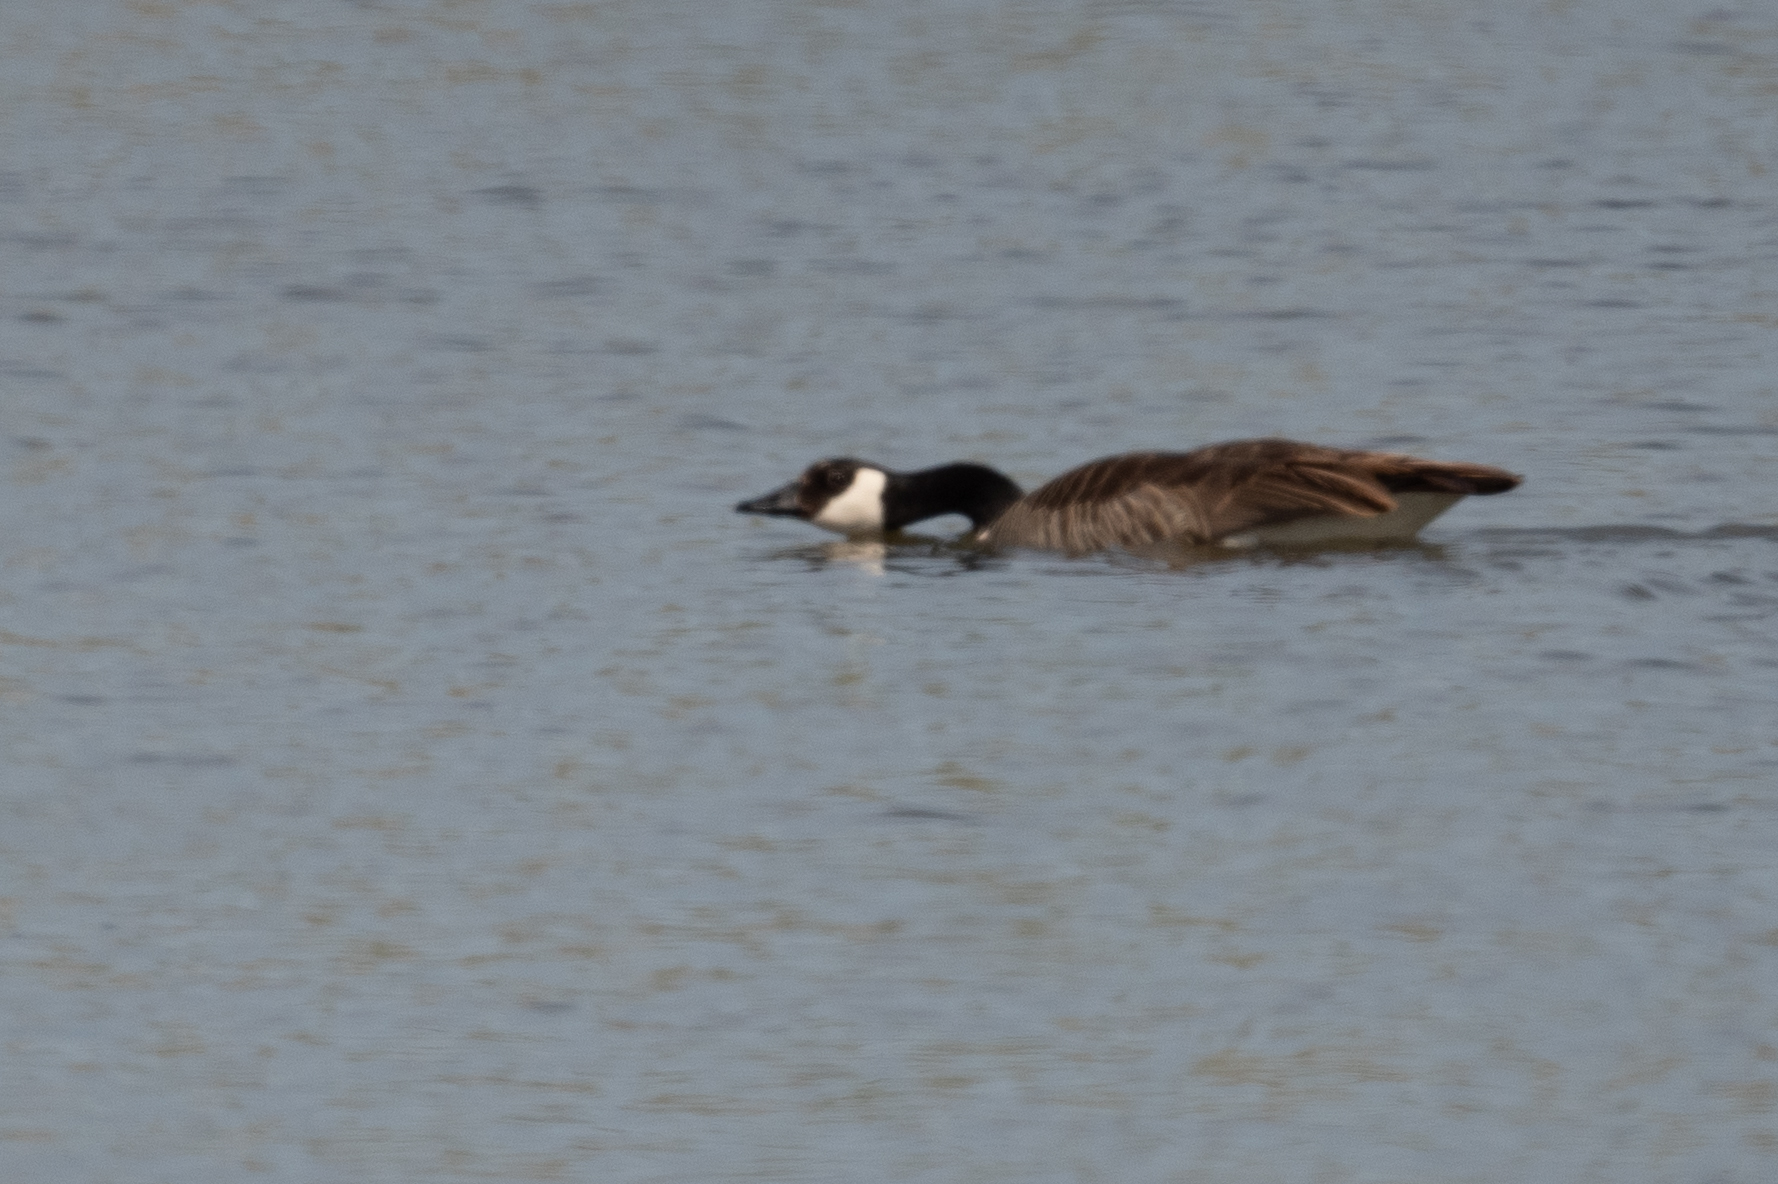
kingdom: Animalia
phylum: Chordata
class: Aves
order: Anseriformes
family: Anatidae
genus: Branta
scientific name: Branta canadensis
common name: Canada goose
